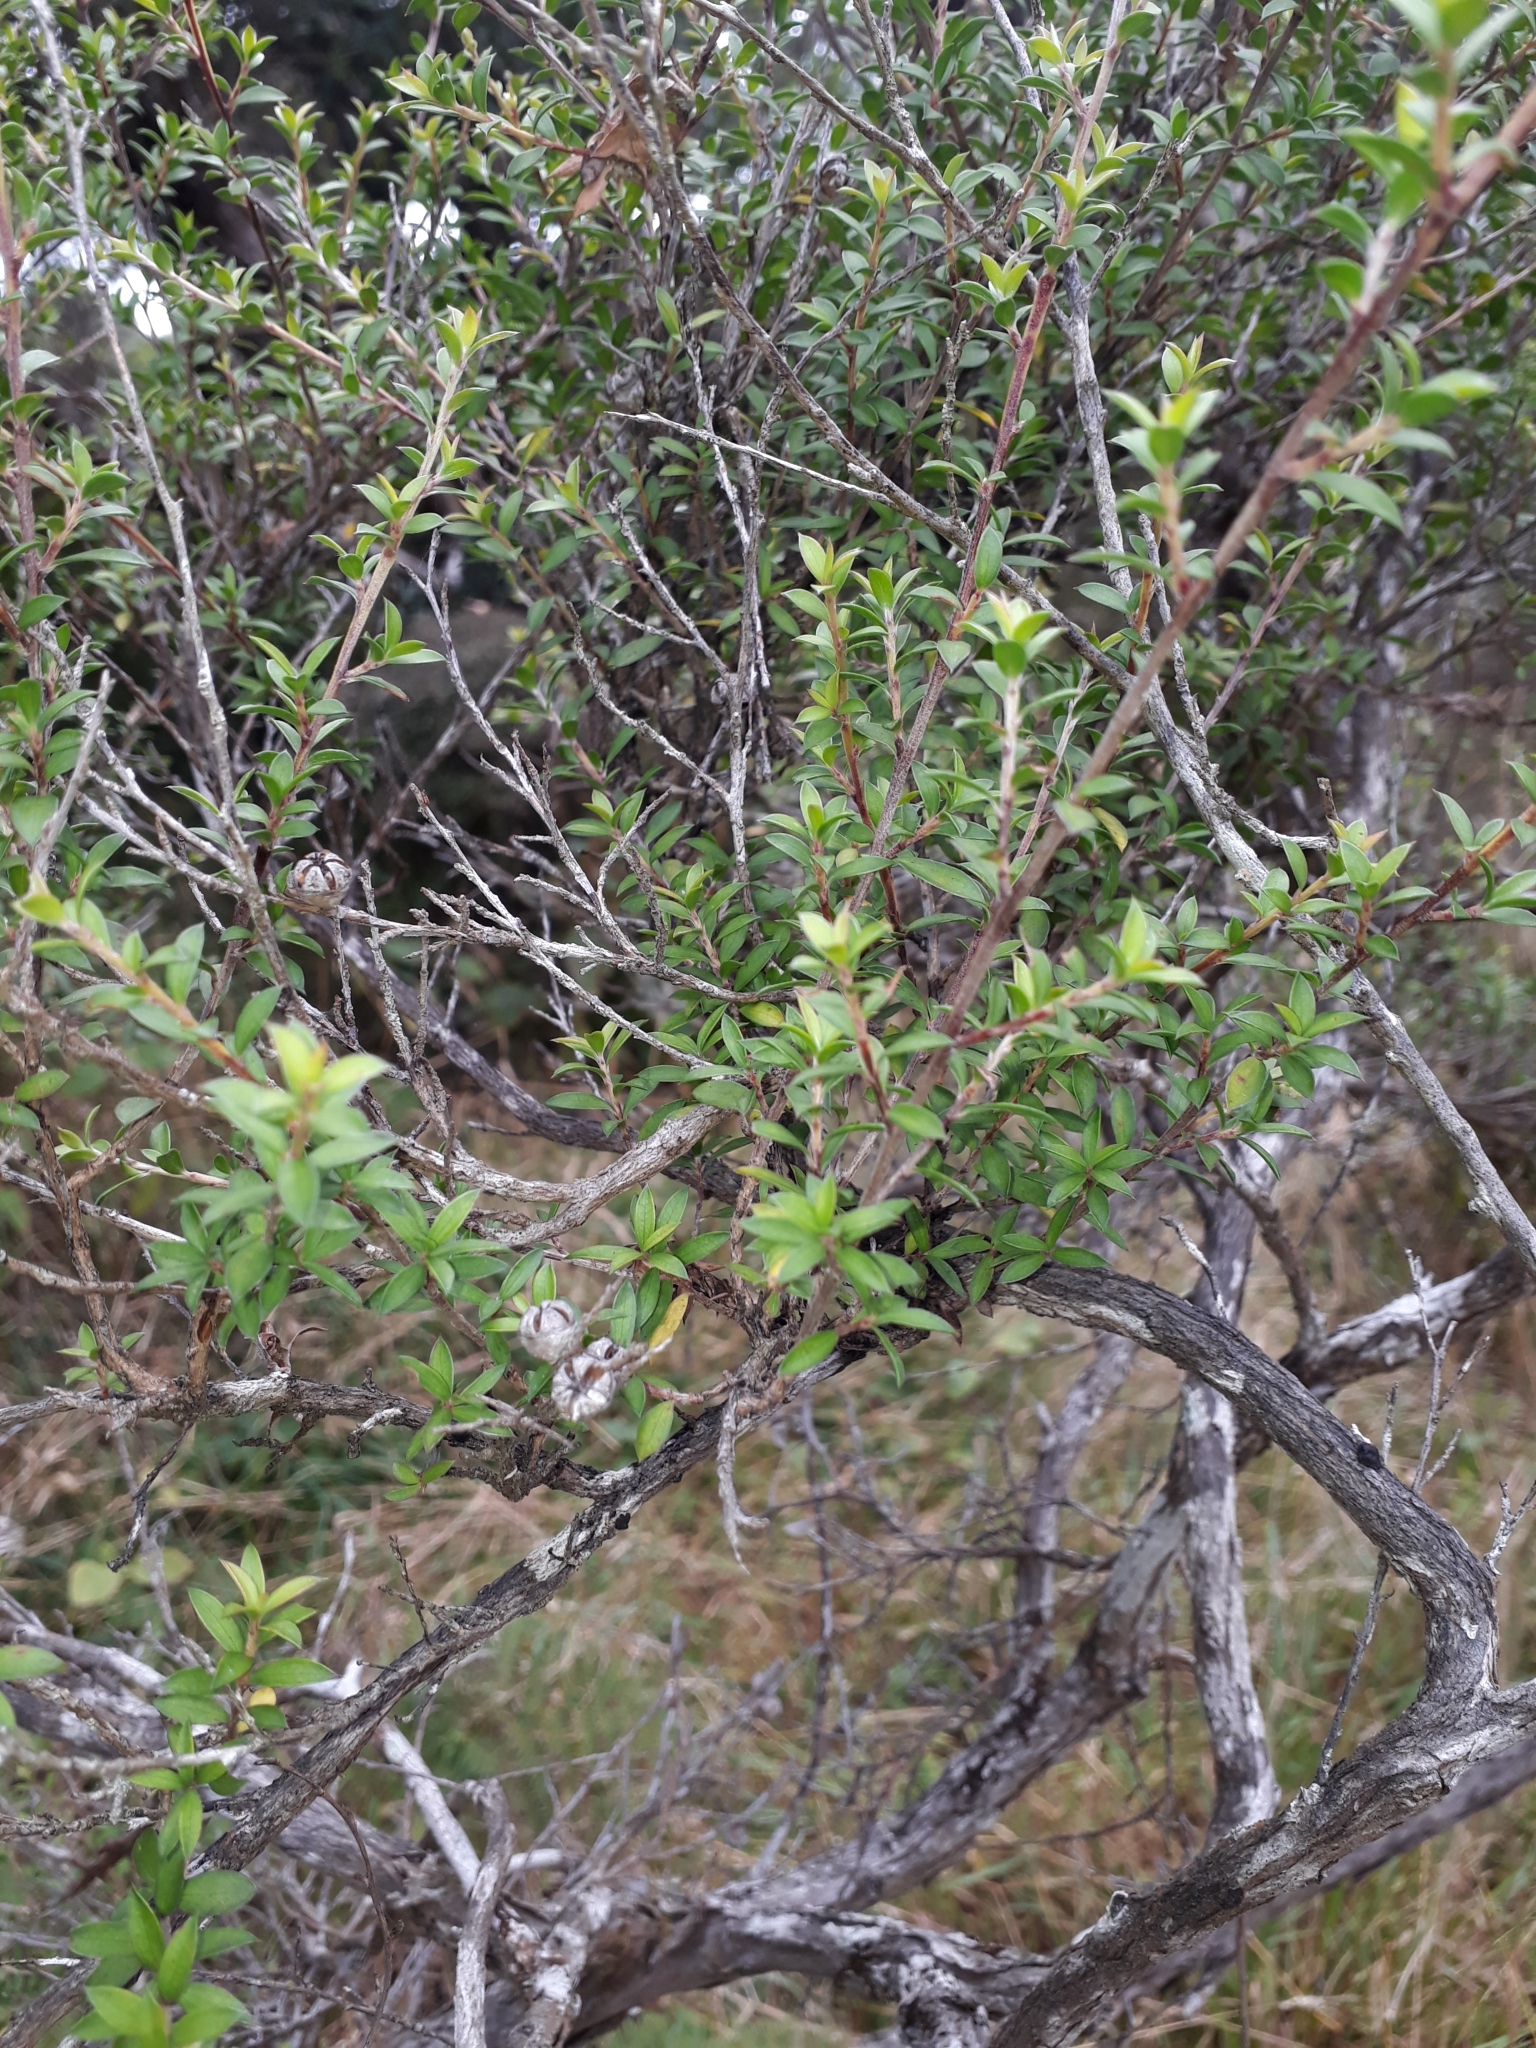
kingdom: Plantae
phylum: Tracheophyta
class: Magnoliopsida
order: Myrtales
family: Myrtaceae
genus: Leptospermum
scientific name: Leptospermum scoparium
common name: Broom tea-tree
